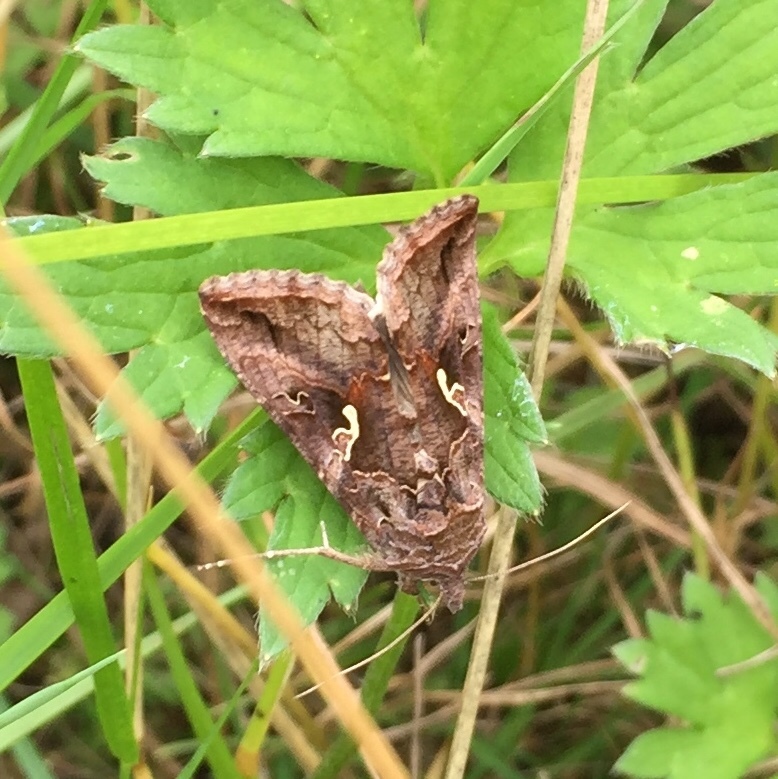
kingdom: Animalia
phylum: Arthropoda
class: Insecta
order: Lepidoptera
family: Noctuidae
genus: Autographa
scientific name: Autographa gamma
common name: Silver y
